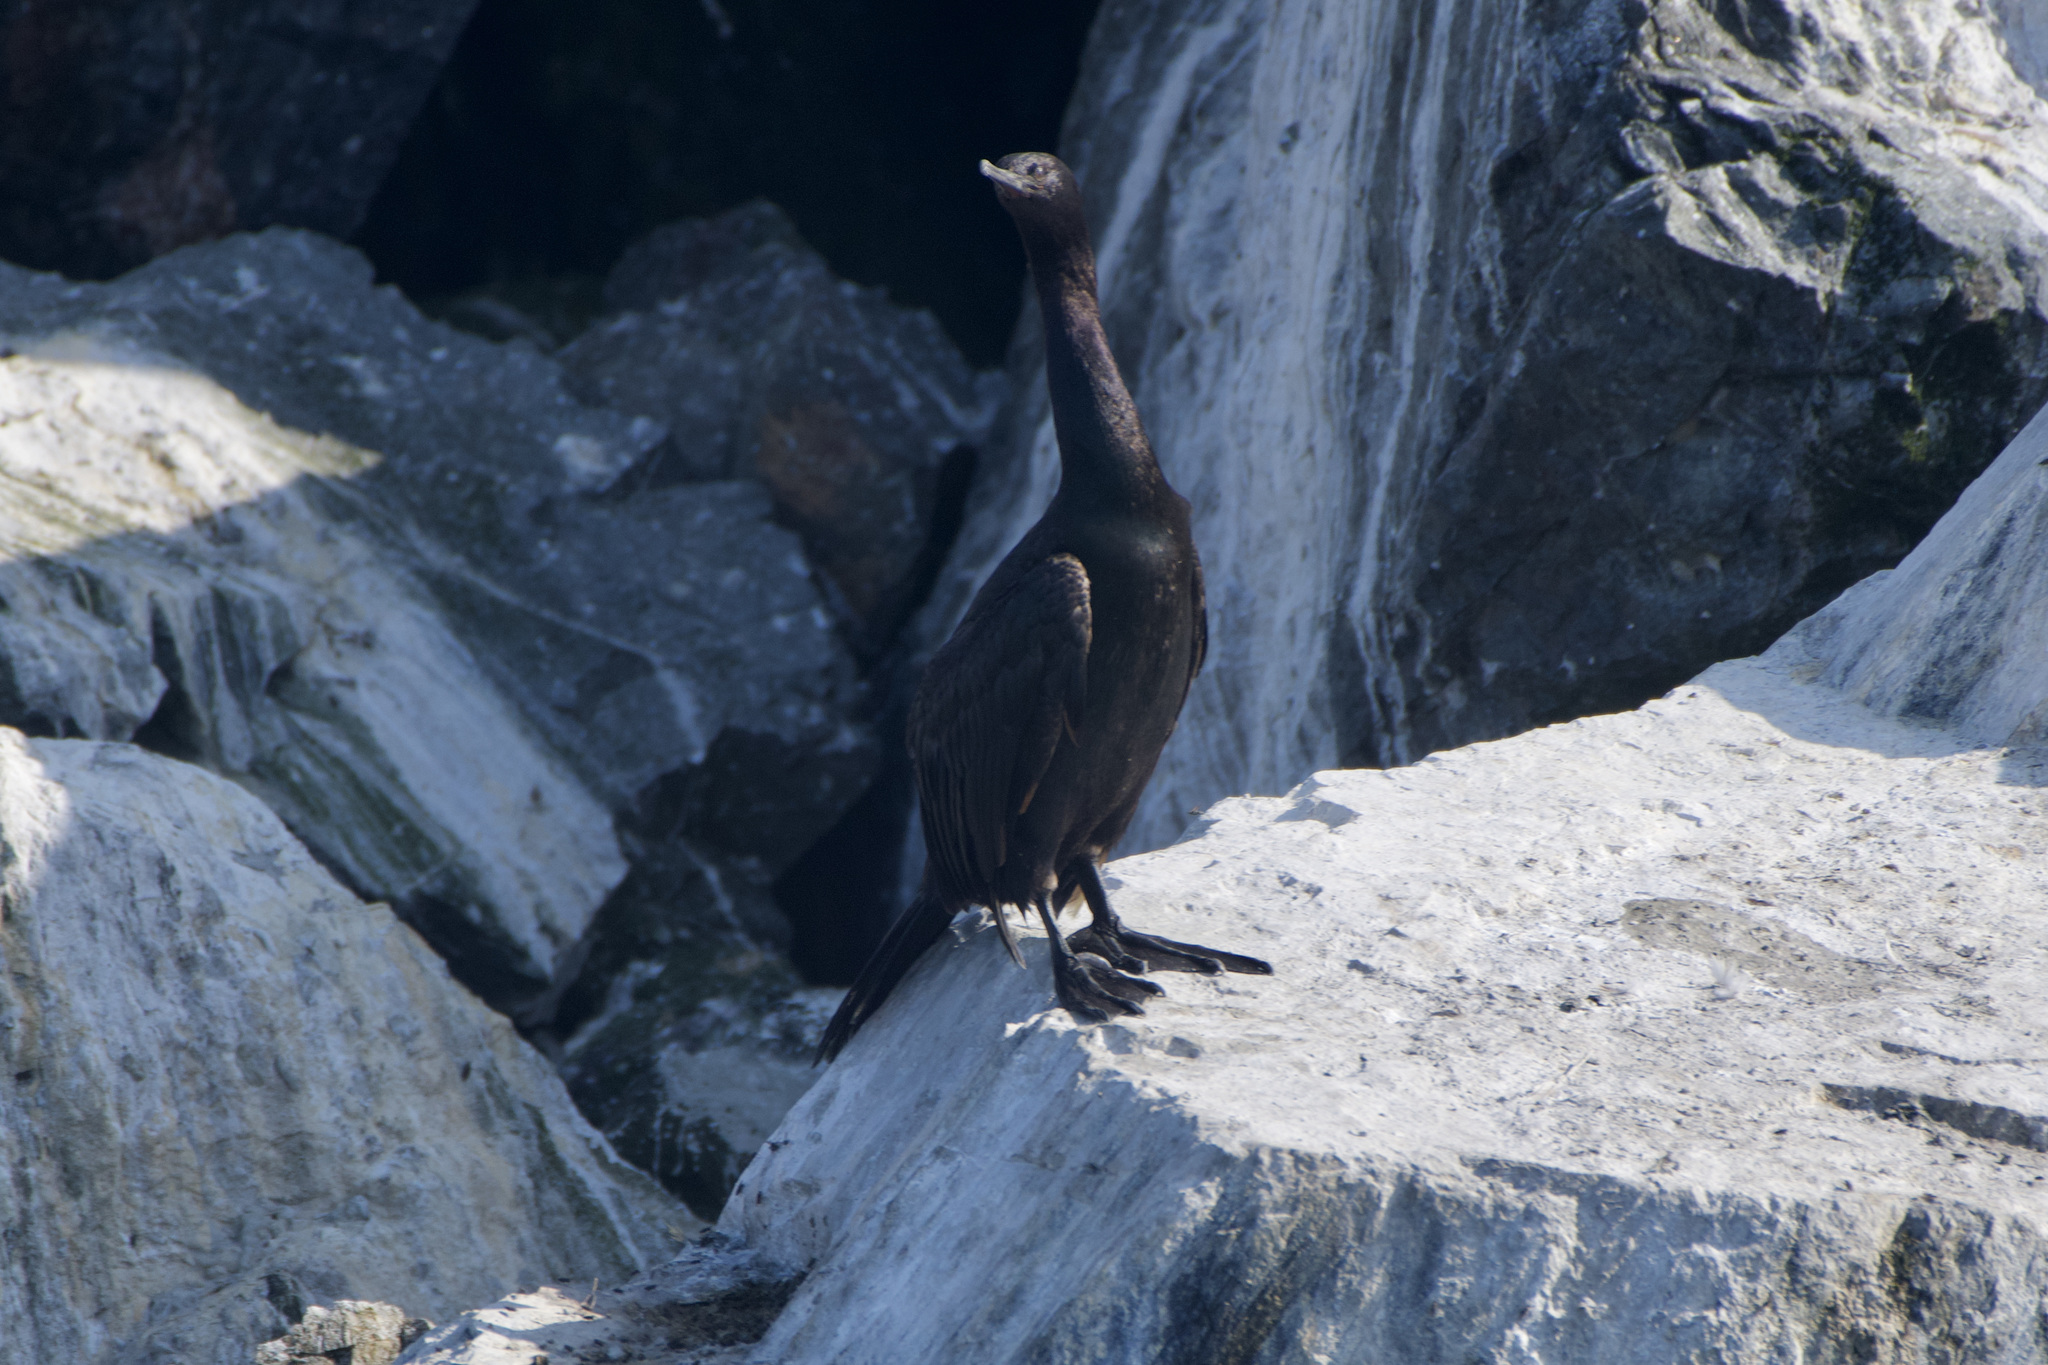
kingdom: Animalia
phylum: Chordata
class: Aves
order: Suliformes
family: Phalacrocoracidae
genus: Phalacrocorax
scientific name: Phalacrocorax pelagicus
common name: Pelagic cormorant
